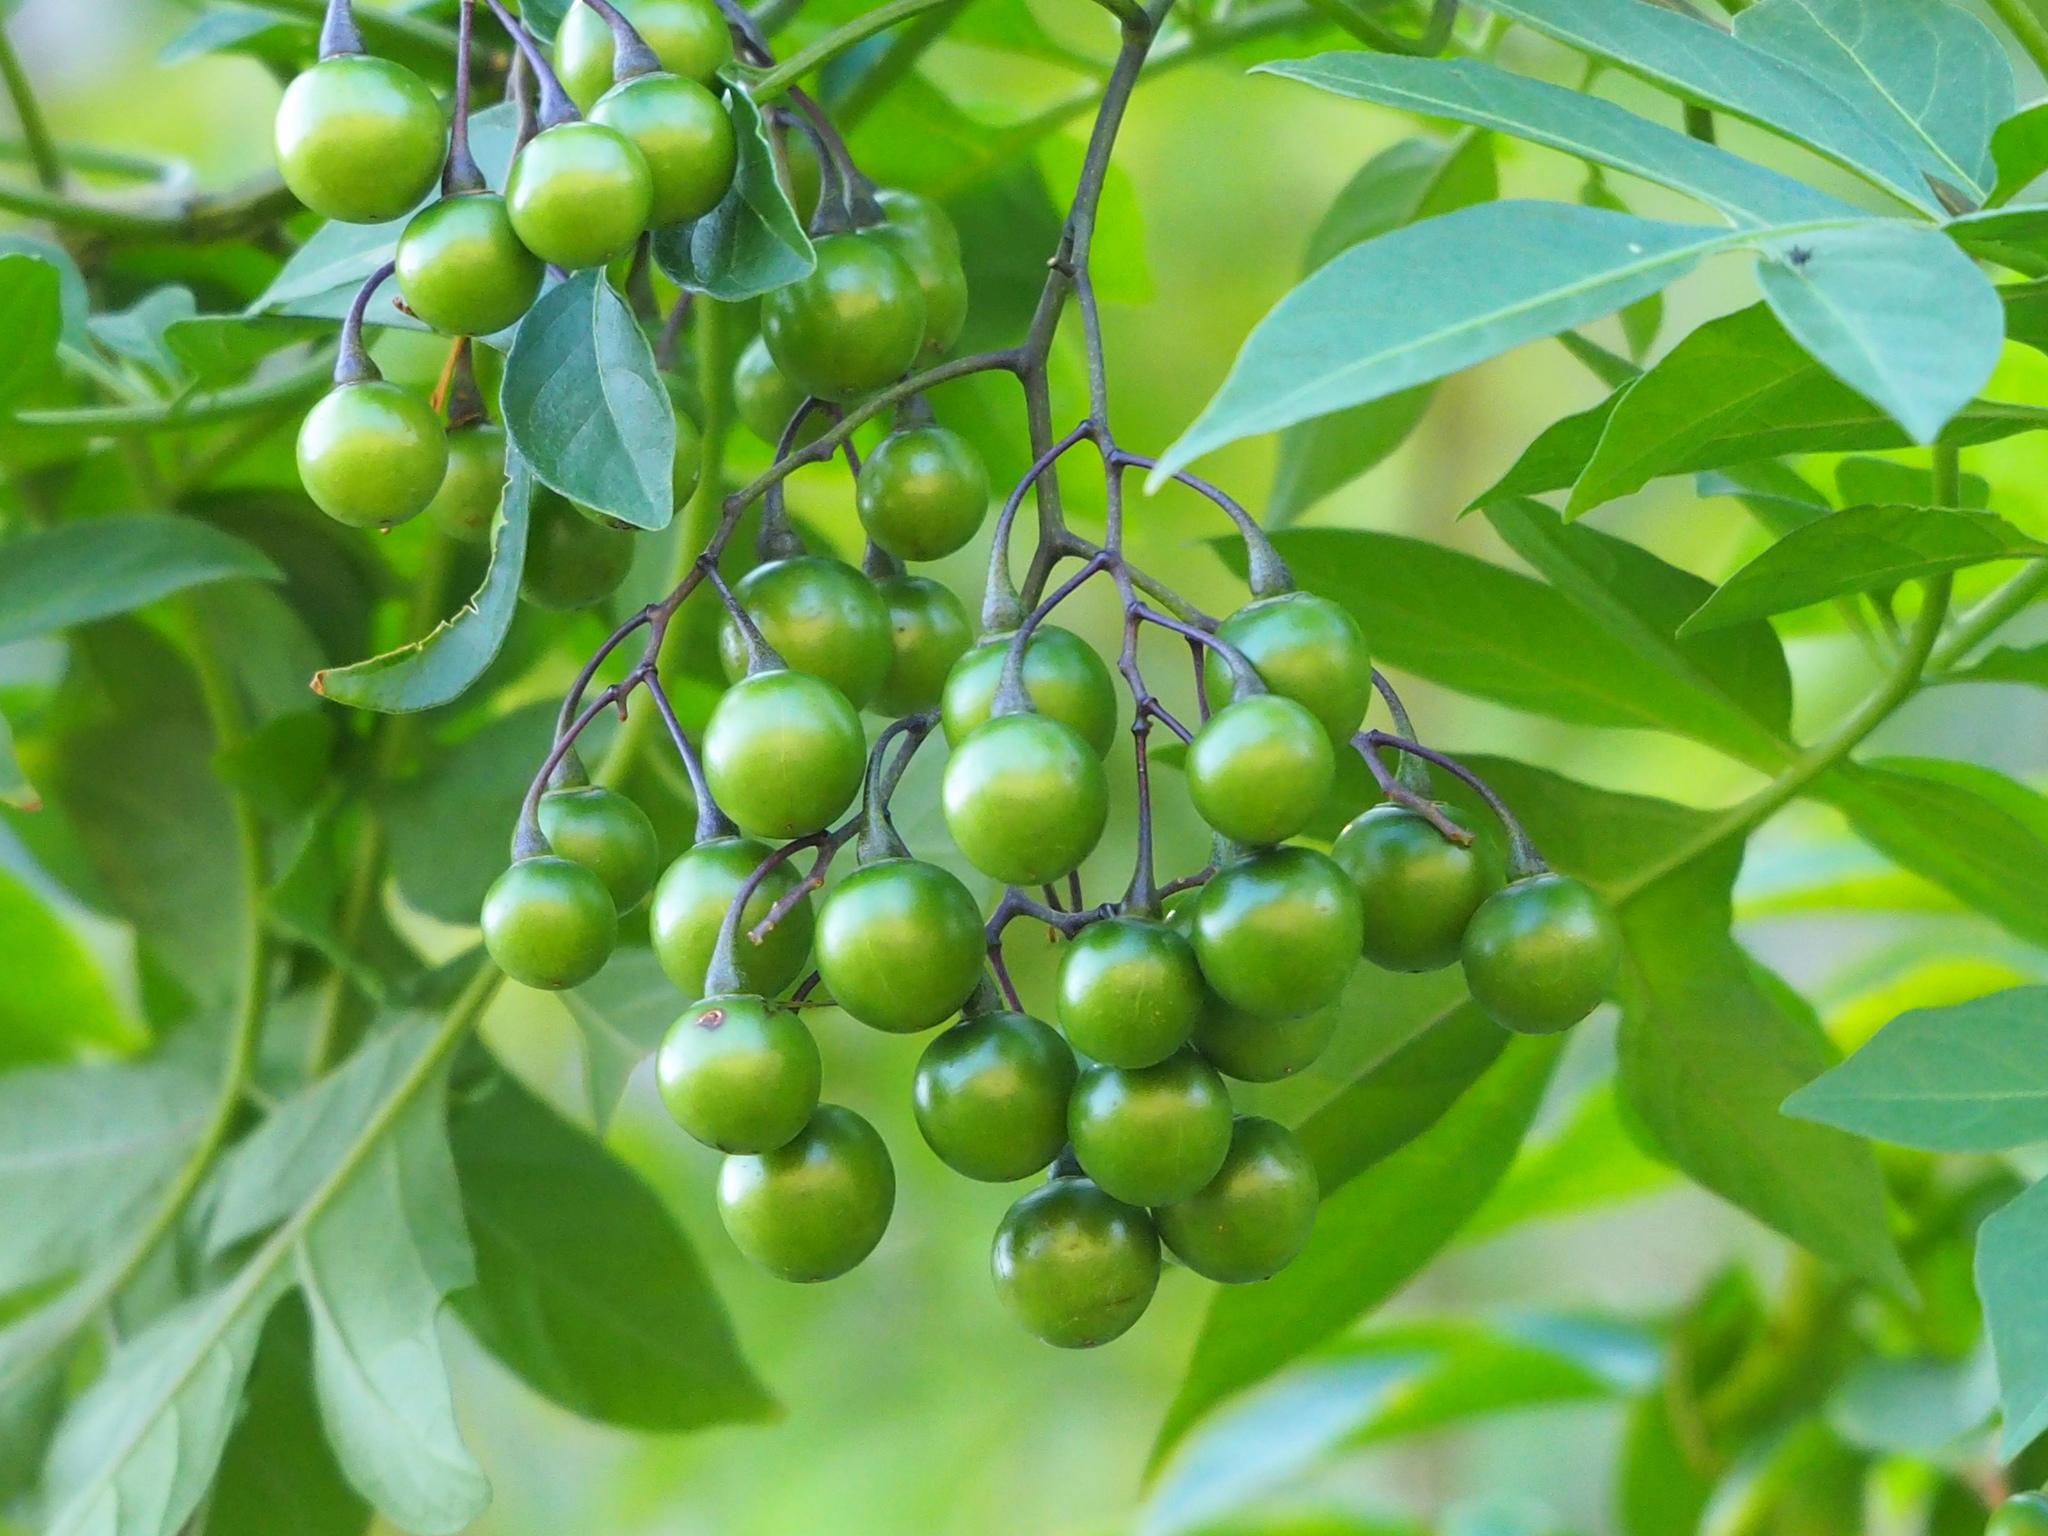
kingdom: Plantae
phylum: Tracheophyta
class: Magnoliopsida
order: Solanales
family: Solanaceae
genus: Solanum
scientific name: Solanum seaforthianum
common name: Brazilian nightshade
